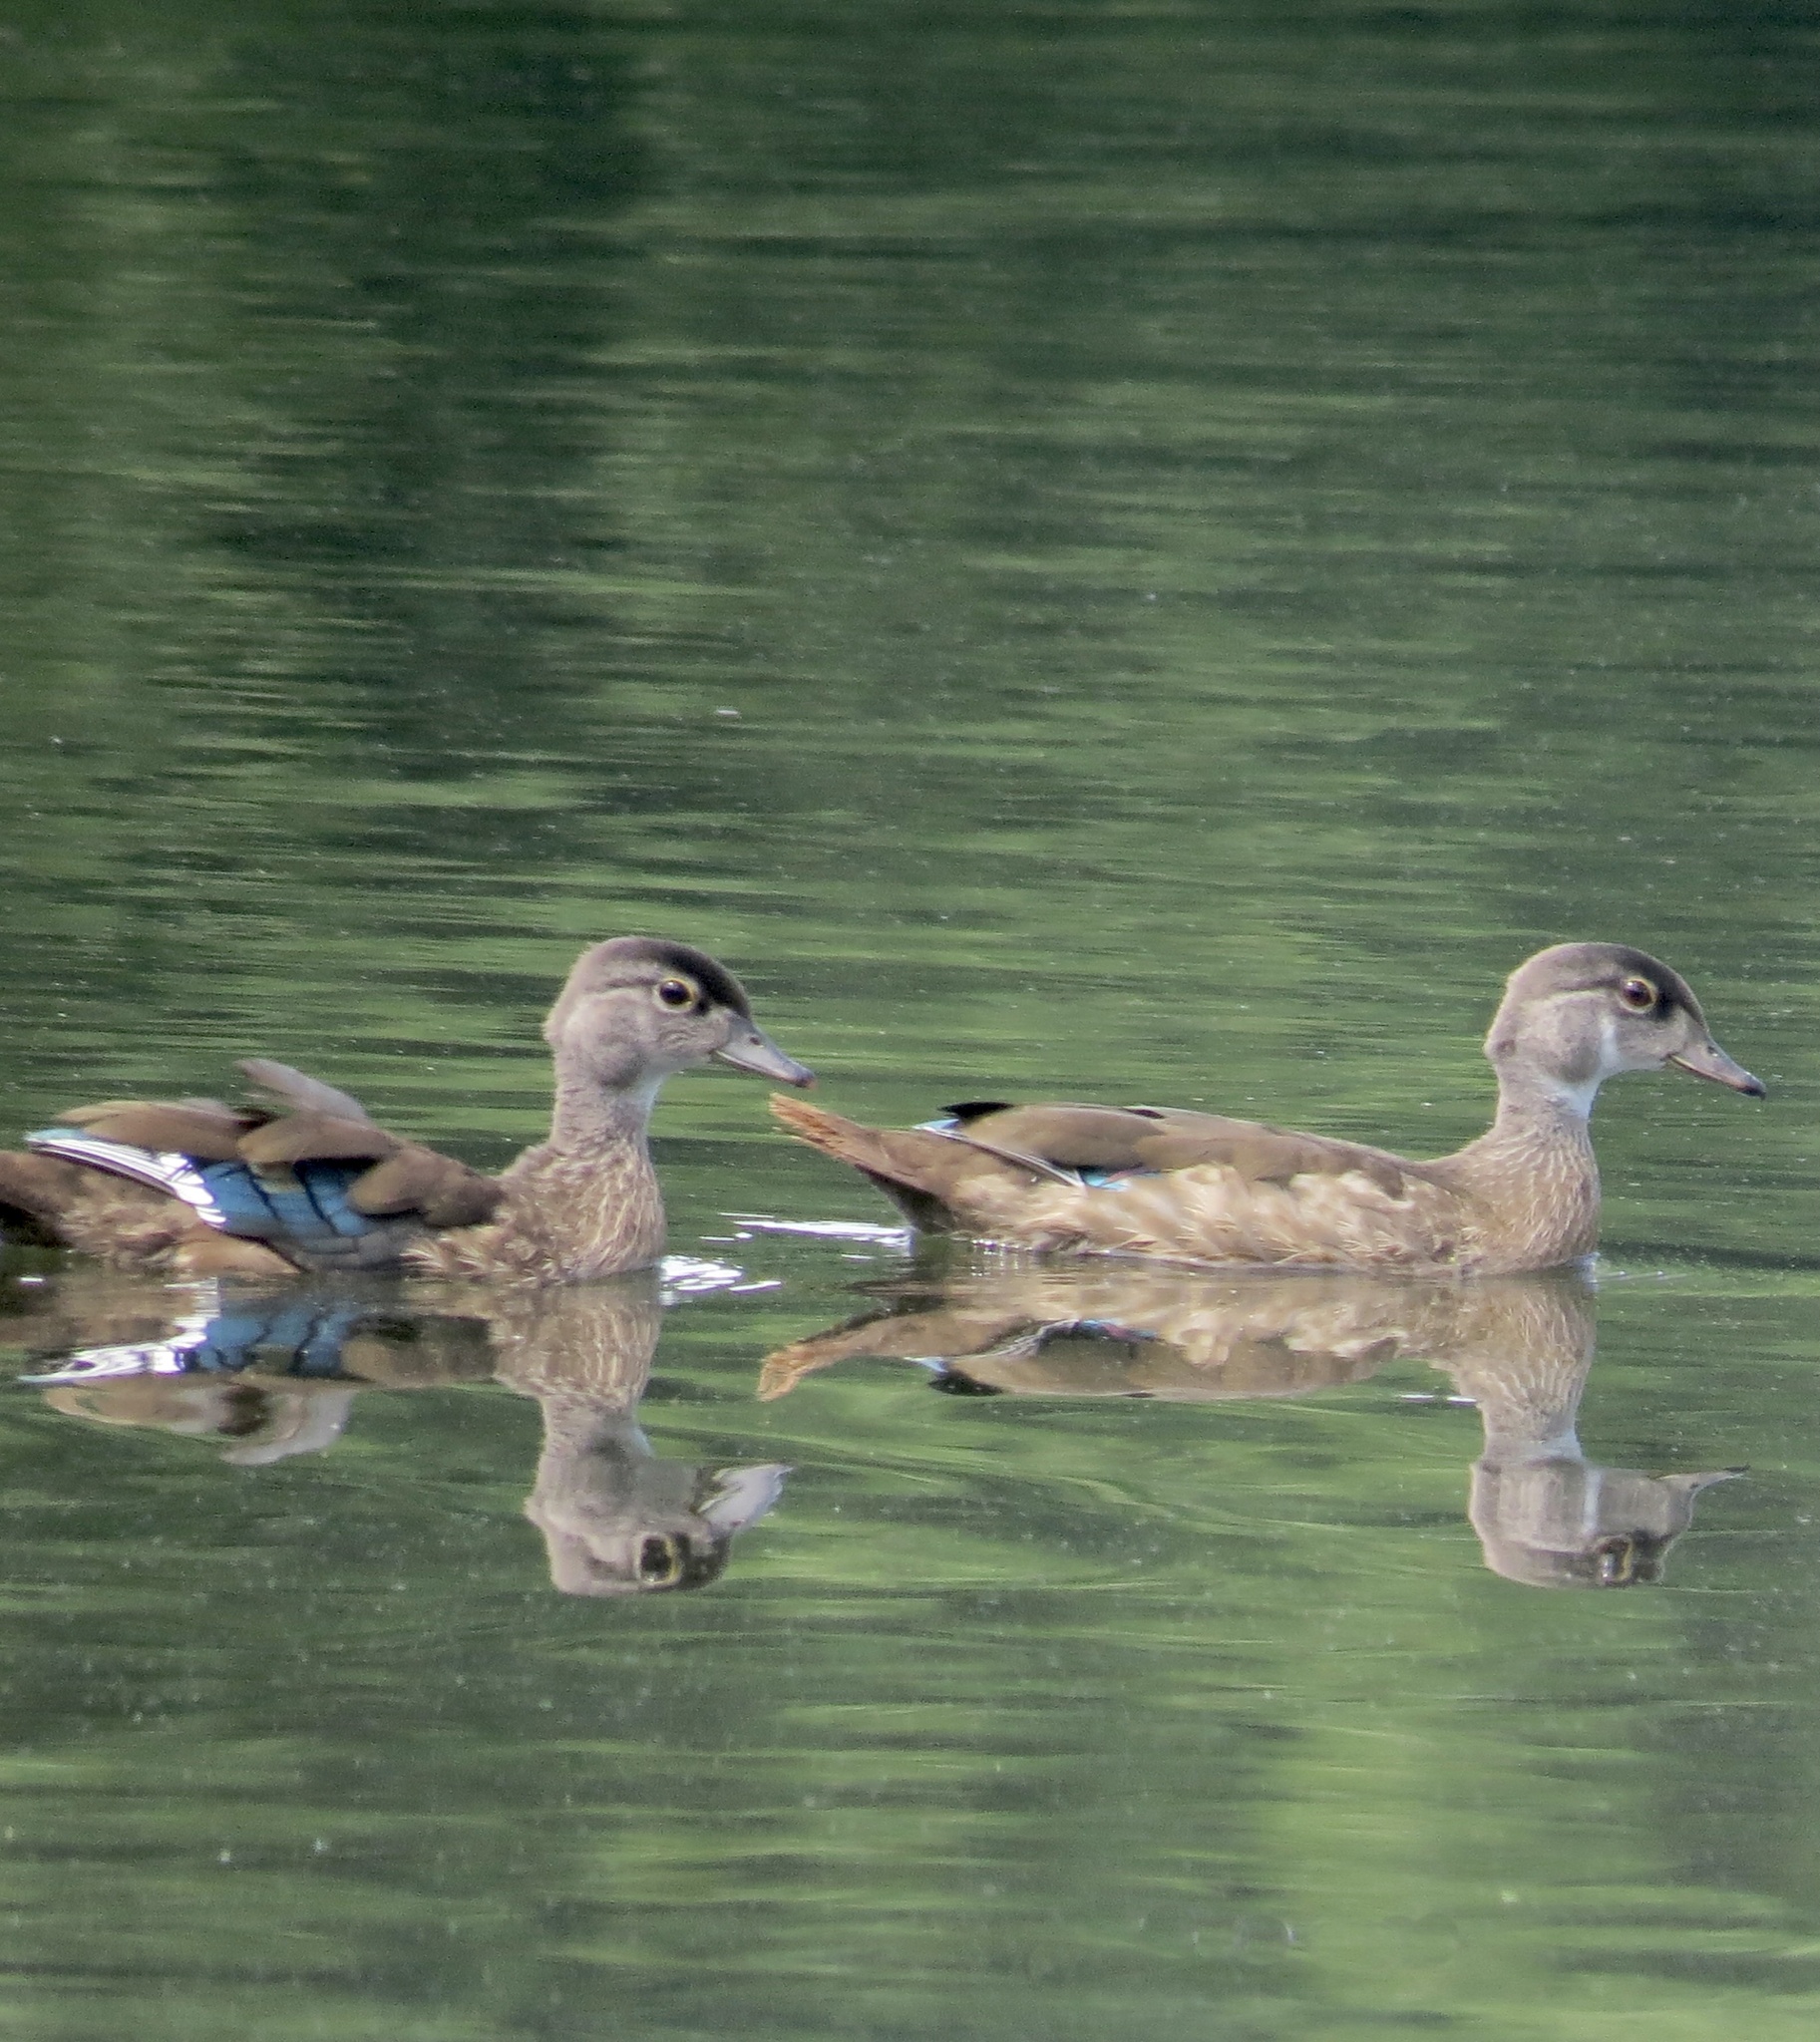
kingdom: Animalia
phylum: Chordata
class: Aves
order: Anseriformes
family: Anatidae
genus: Aix
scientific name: Aix sponsa
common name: Wood duck
